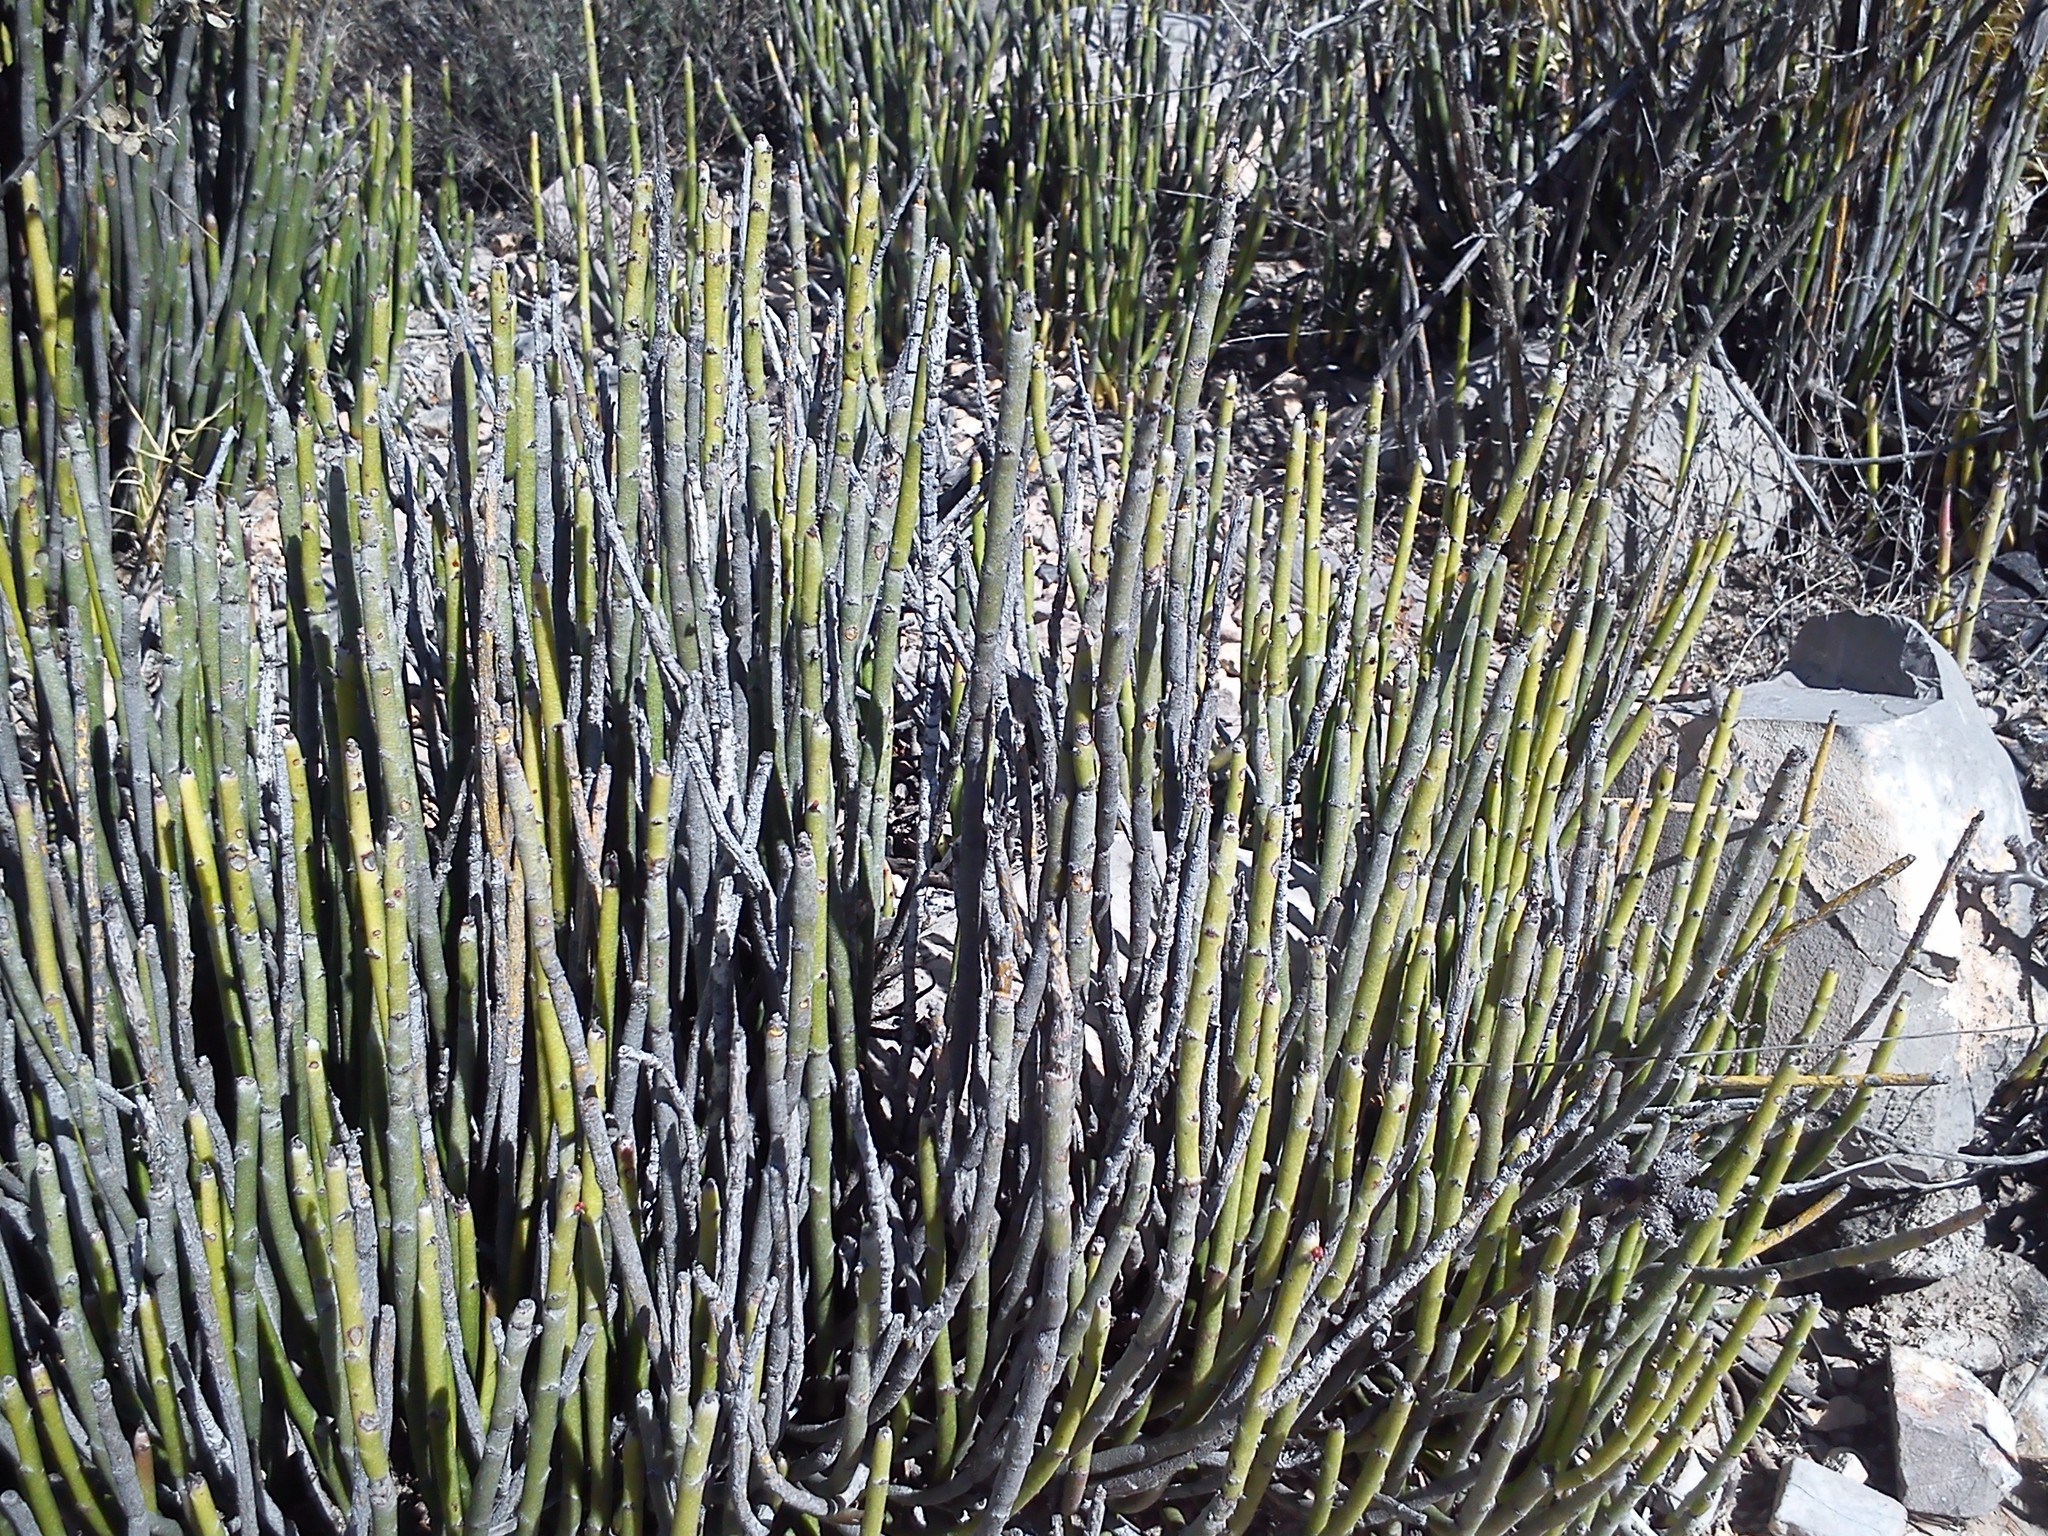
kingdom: Plantae
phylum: Tracheophyta
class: Magnoliopsida
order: Malpighiales
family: Euphorbiaceae
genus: Euphorbia
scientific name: Euphorbia antisyphilitica
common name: Candelilla
